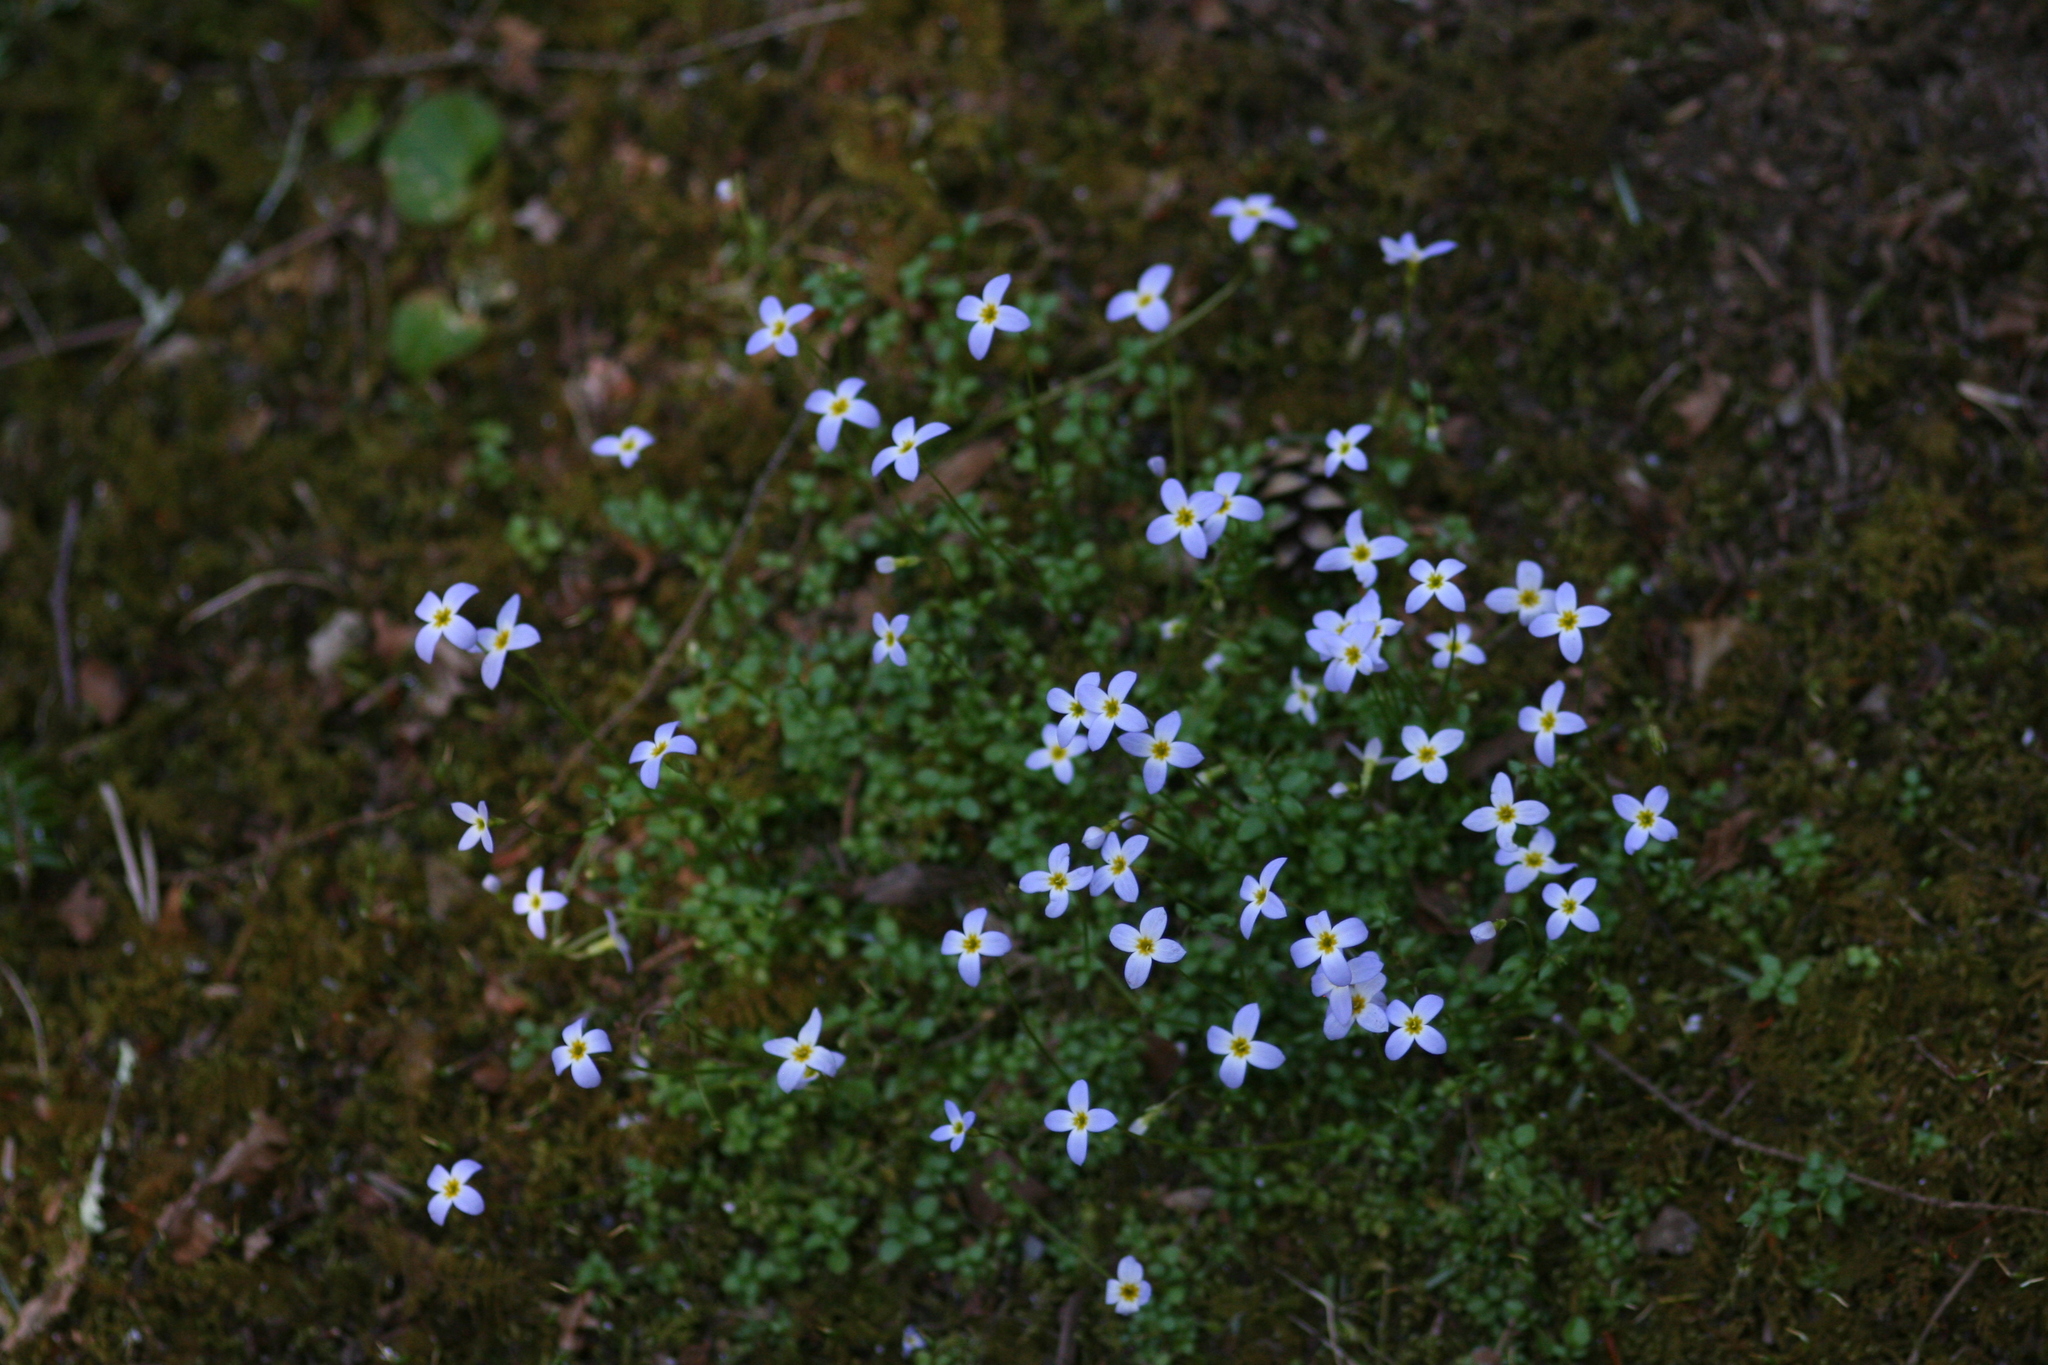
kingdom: Plantae
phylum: Tracheophyta
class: Magnoliopsida
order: Gentianales
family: Rubiaceae
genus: Houstonia
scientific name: Houstonia serpyllifolia
